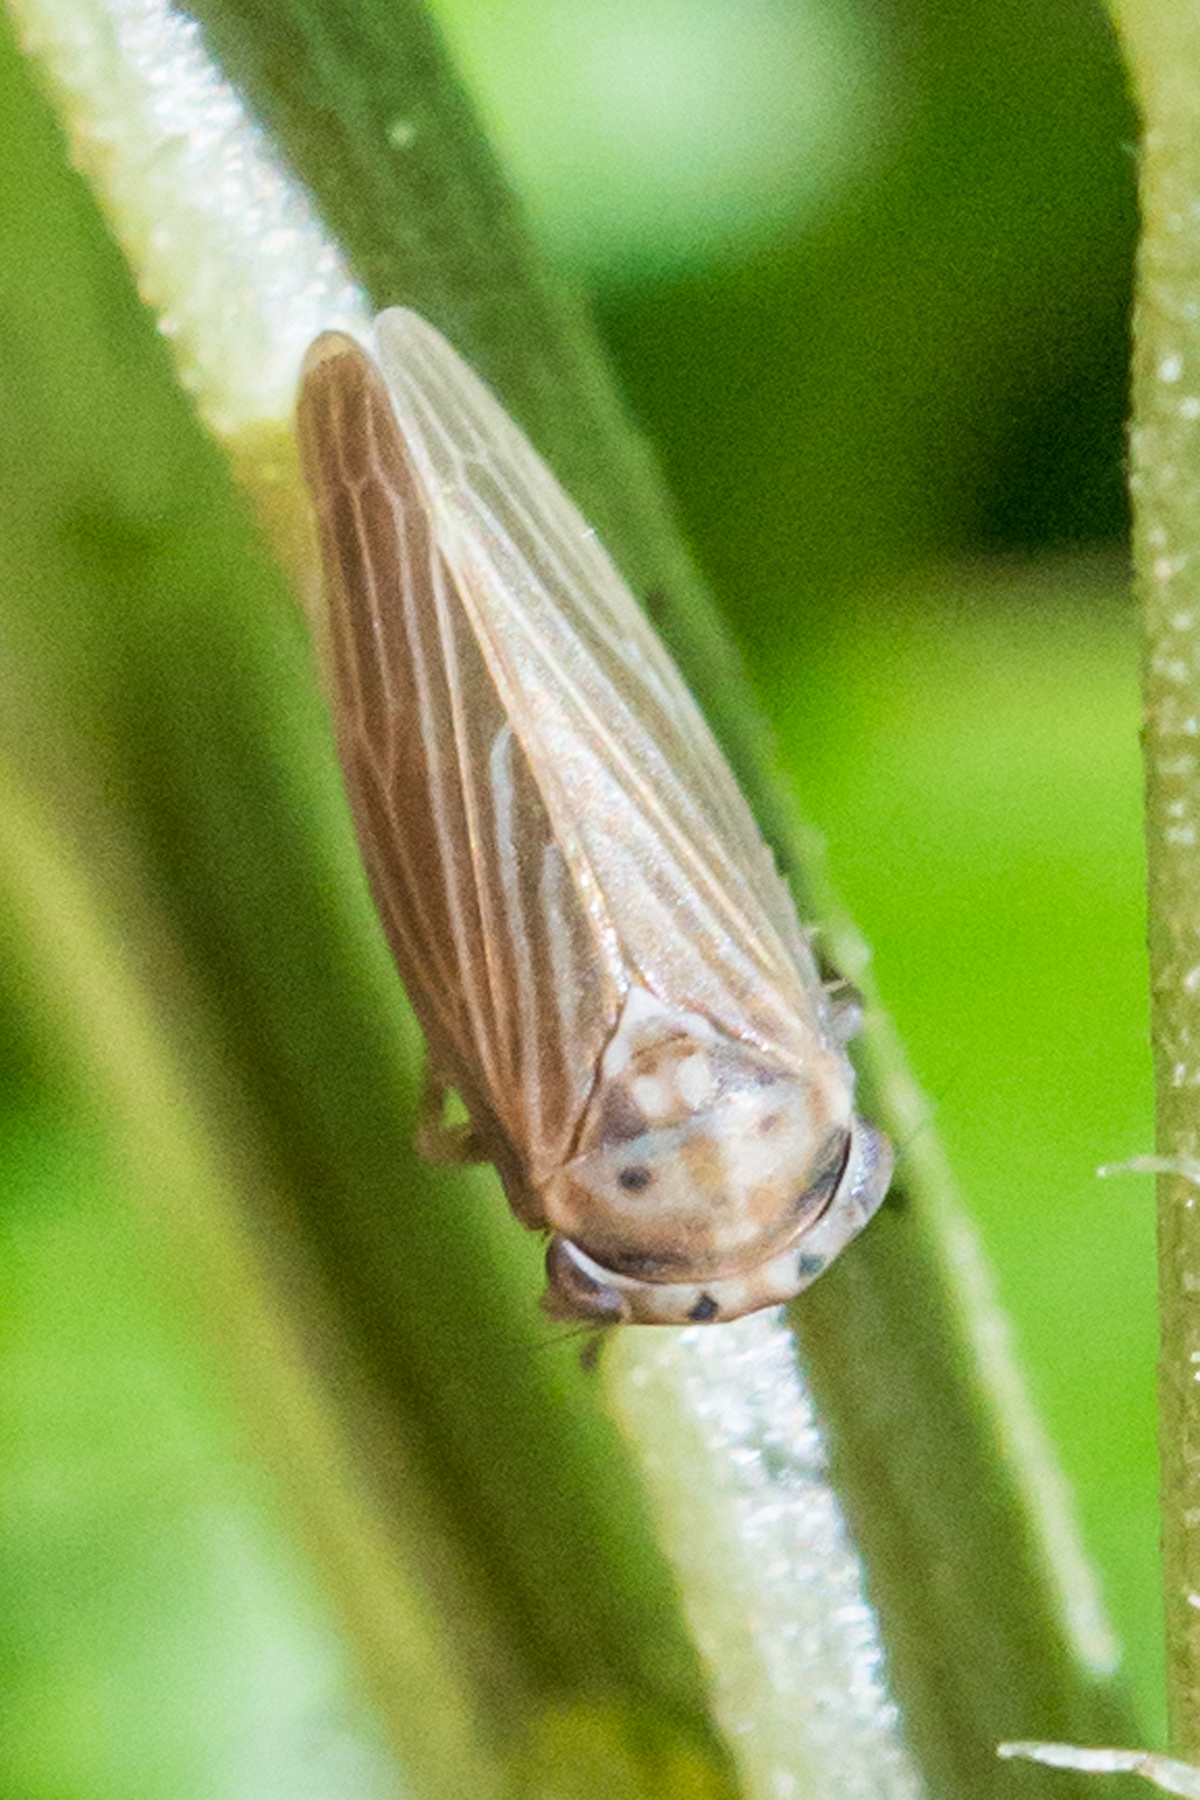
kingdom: Animalia
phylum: Arthropoda
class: Insecta
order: Hemiptera
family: Cicadellidae
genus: Agalliota
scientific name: Agalliota quadripunctata
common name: The four-spotted clover leafhopper
